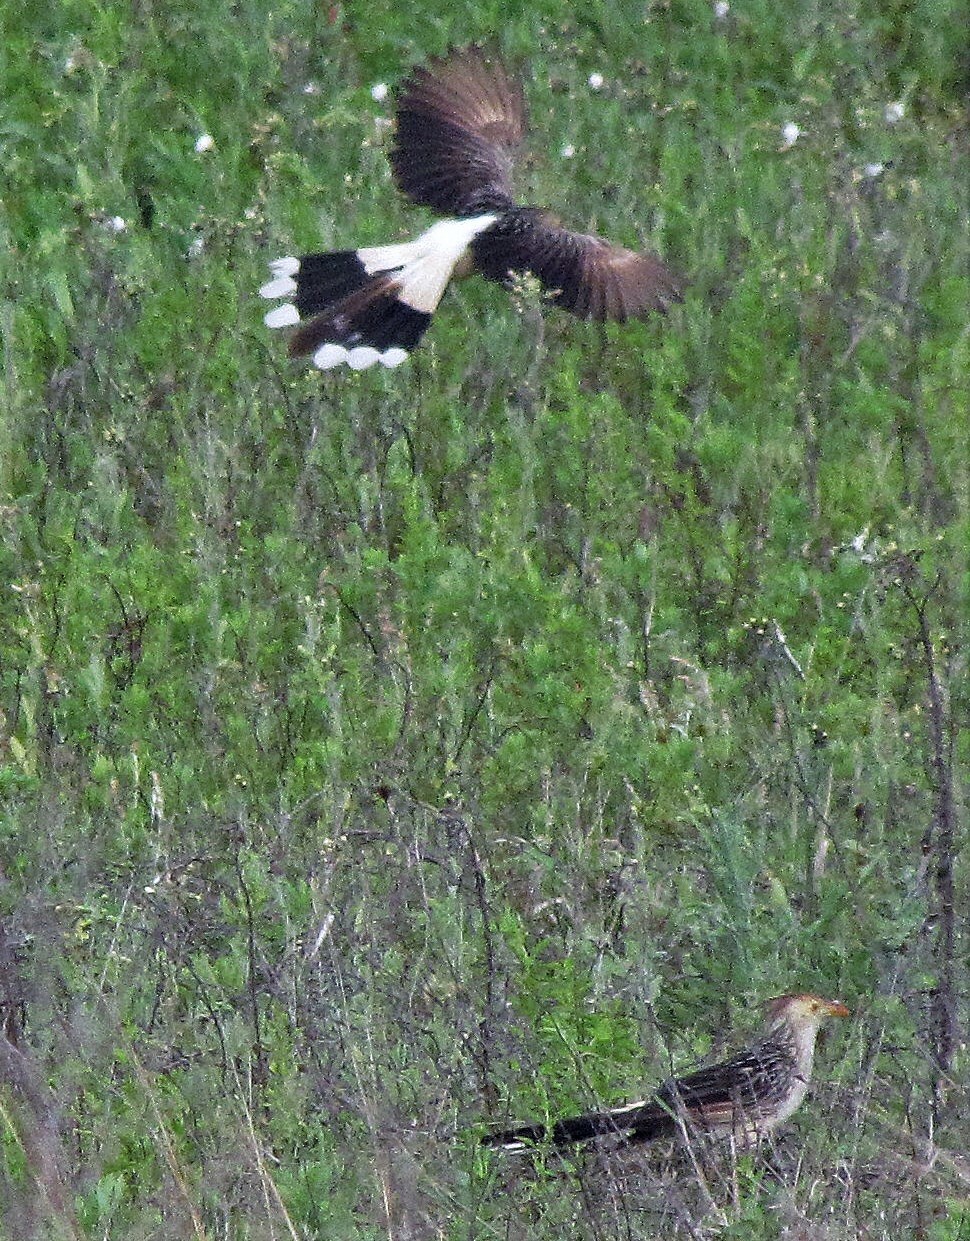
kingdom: Animalia
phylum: Chordata
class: Aves
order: Cuculiformes
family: Cuculidae
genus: Guira
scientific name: Guira guira
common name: Guira cuckoo
